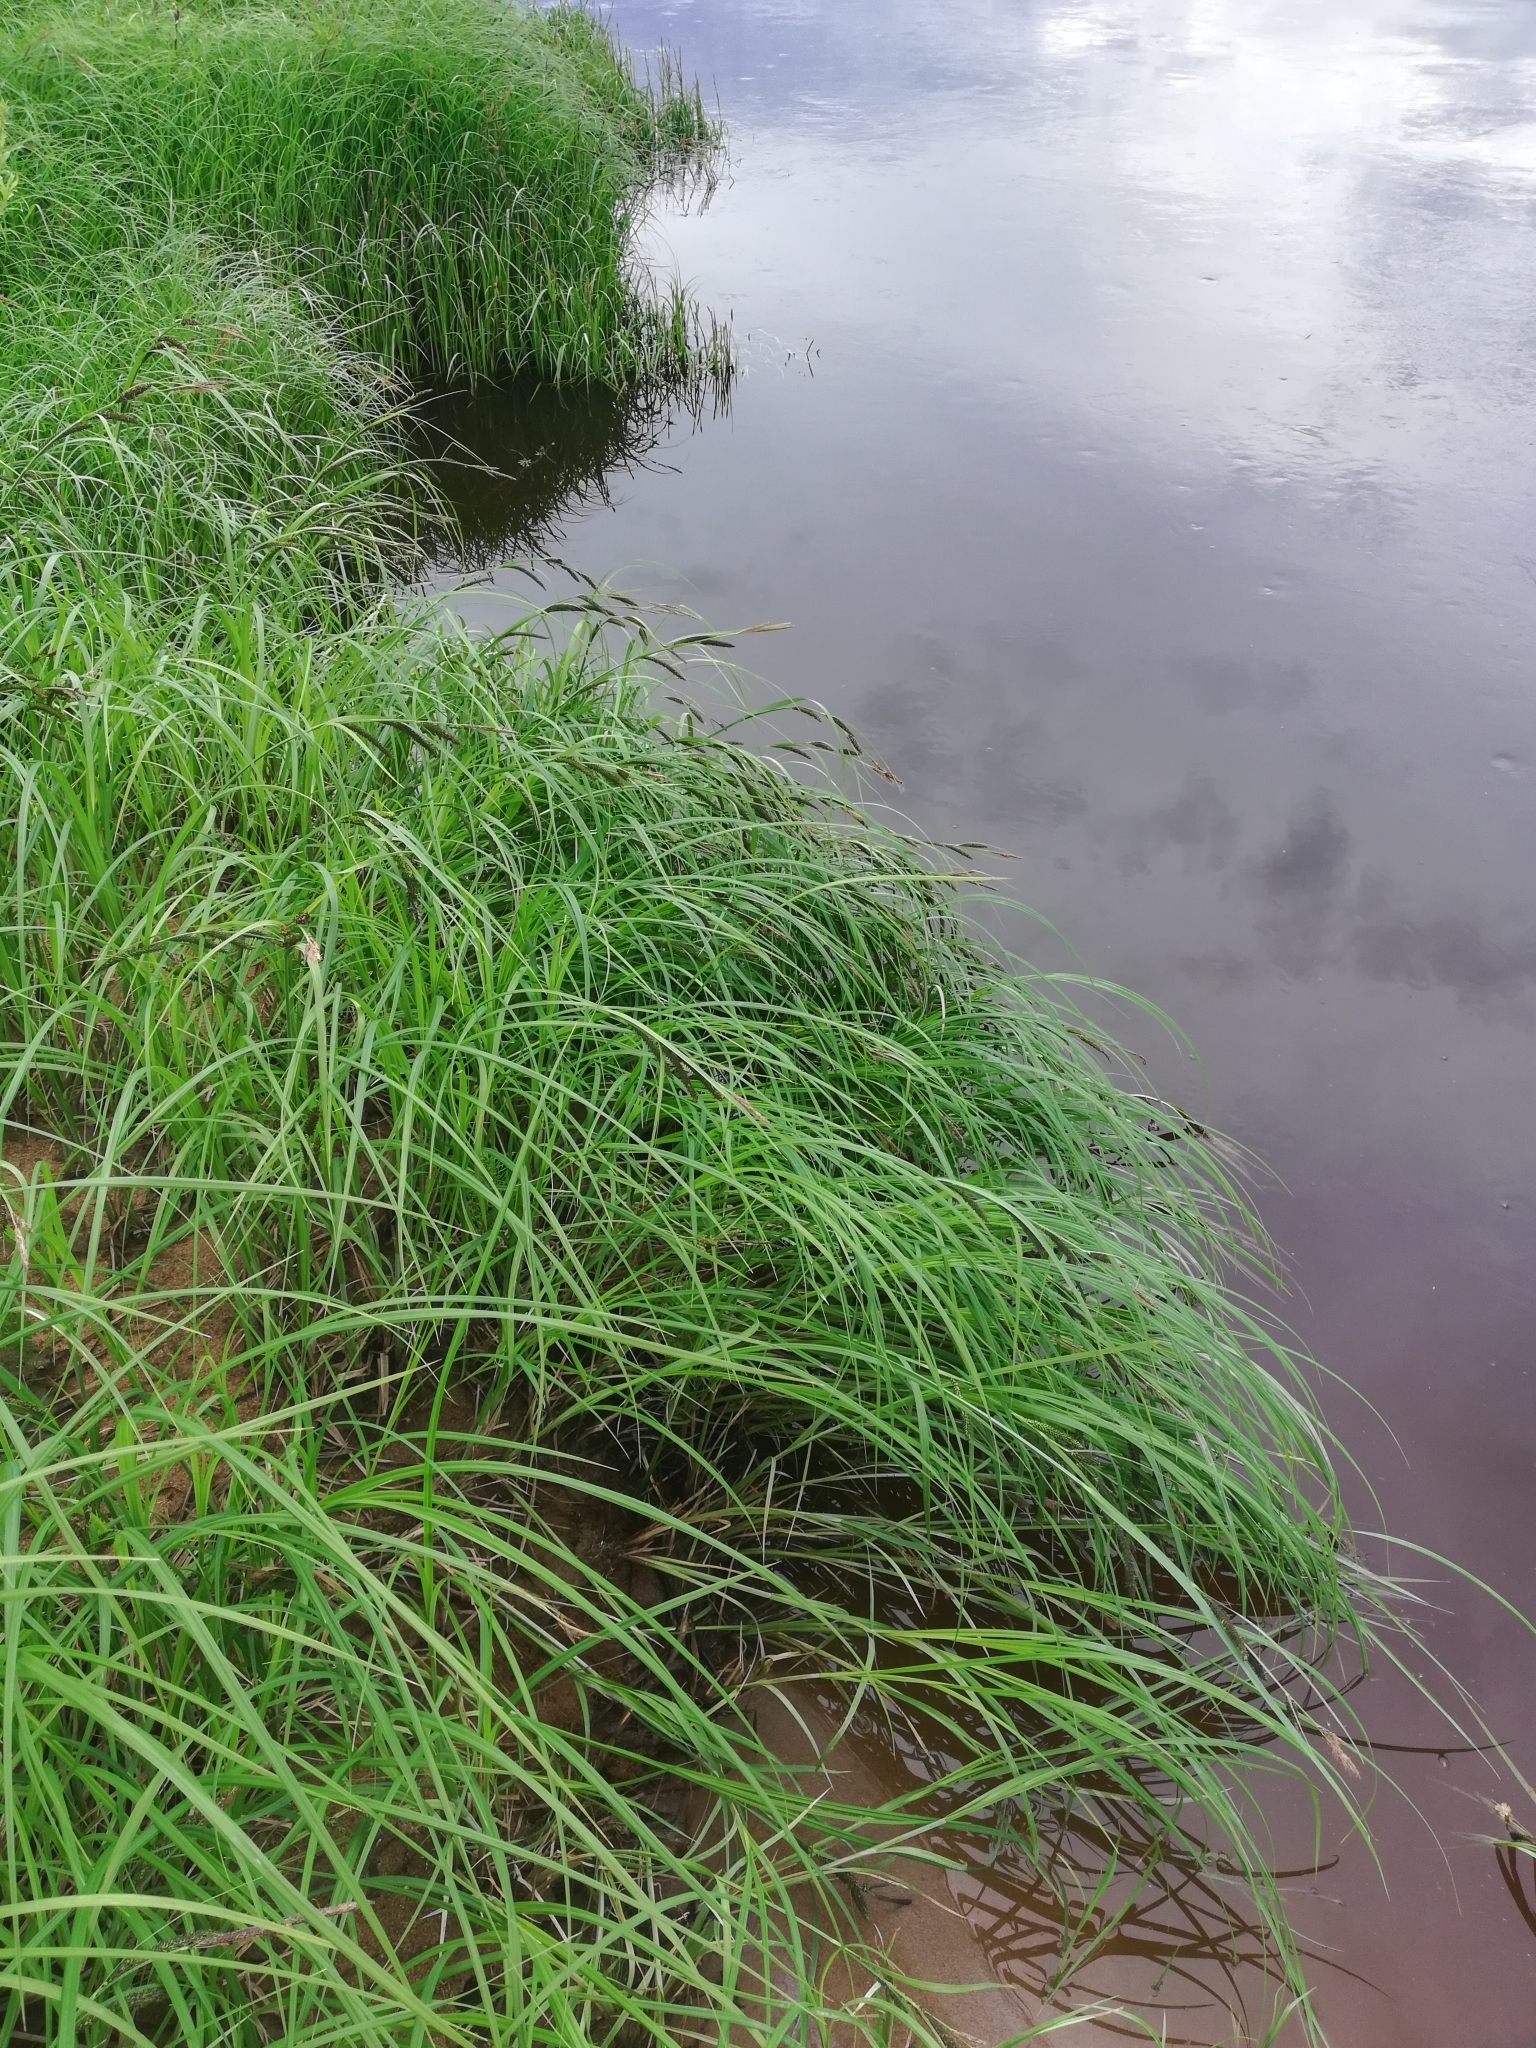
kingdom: Plantae
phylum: Tracheophyta
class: Liliopsida
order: Poales
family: Cyperaceae
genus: Carex
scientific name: Carex acuta
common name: Slender tufted-sedge
